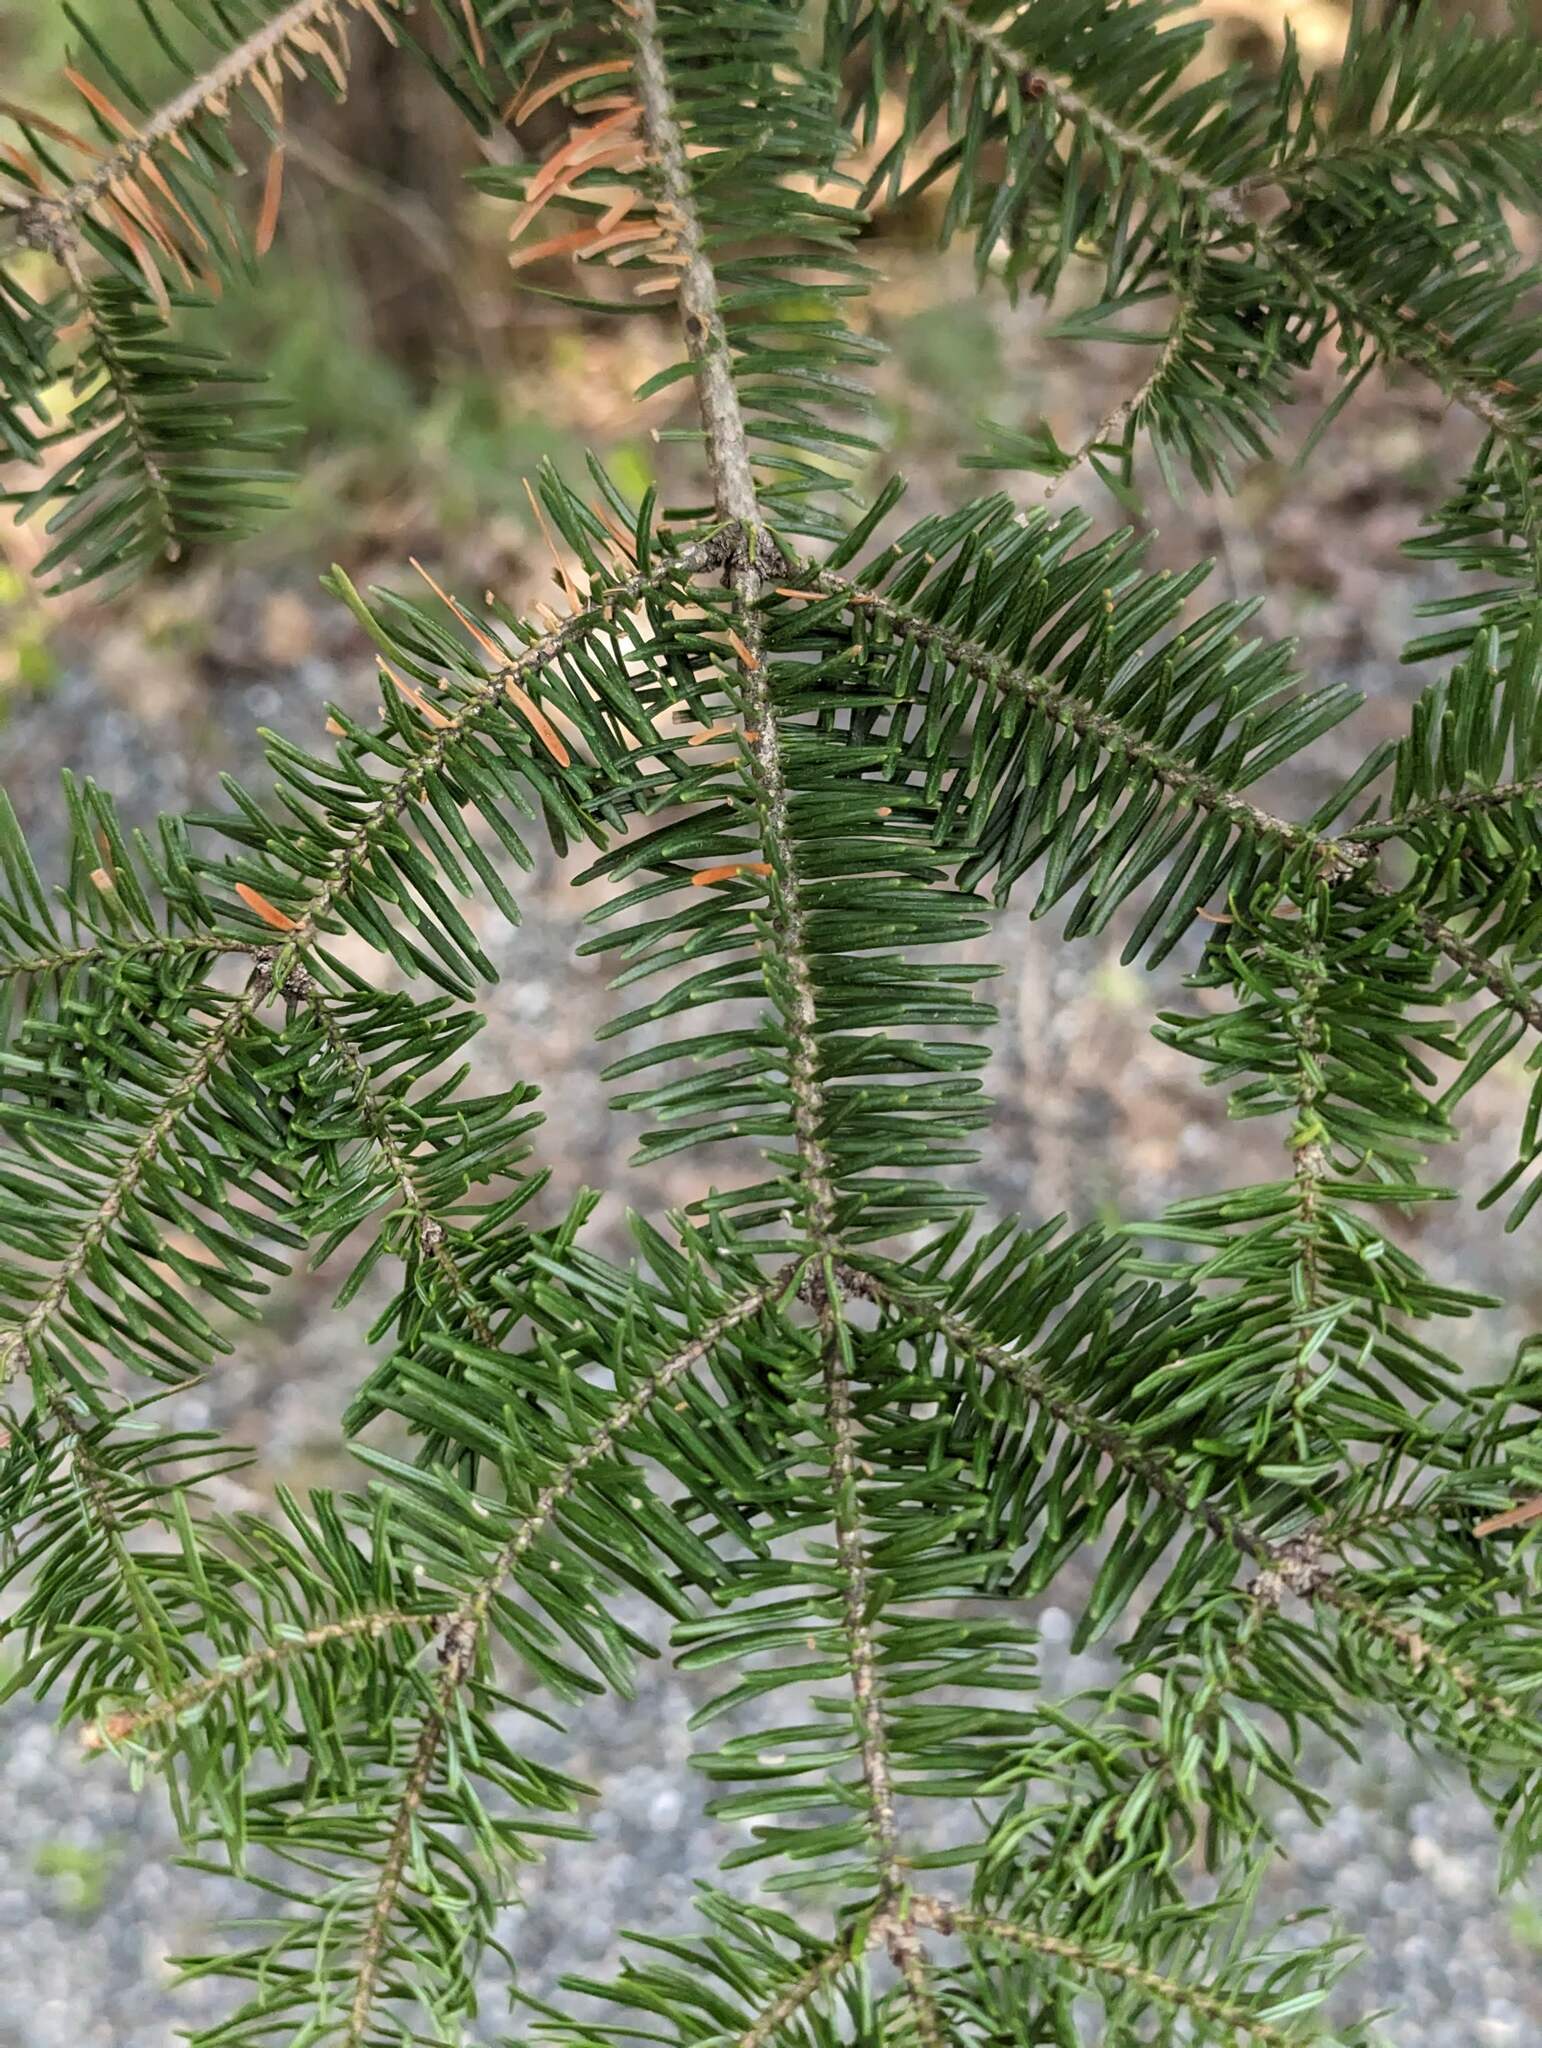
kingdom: Plantae
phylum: Tracheophyta
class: Pinopsida
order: Pinales
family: Pinaceae
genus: Abies
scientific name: Abies balsamea
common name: Balsam fir
